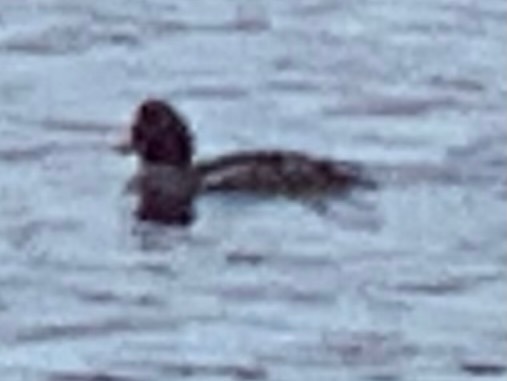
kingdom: Animalia
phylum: Chordata
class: Aves
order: Anseriformes
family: Anatidae
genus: Bucephala
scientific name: Bucephala clangula
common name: Common goldeneye
